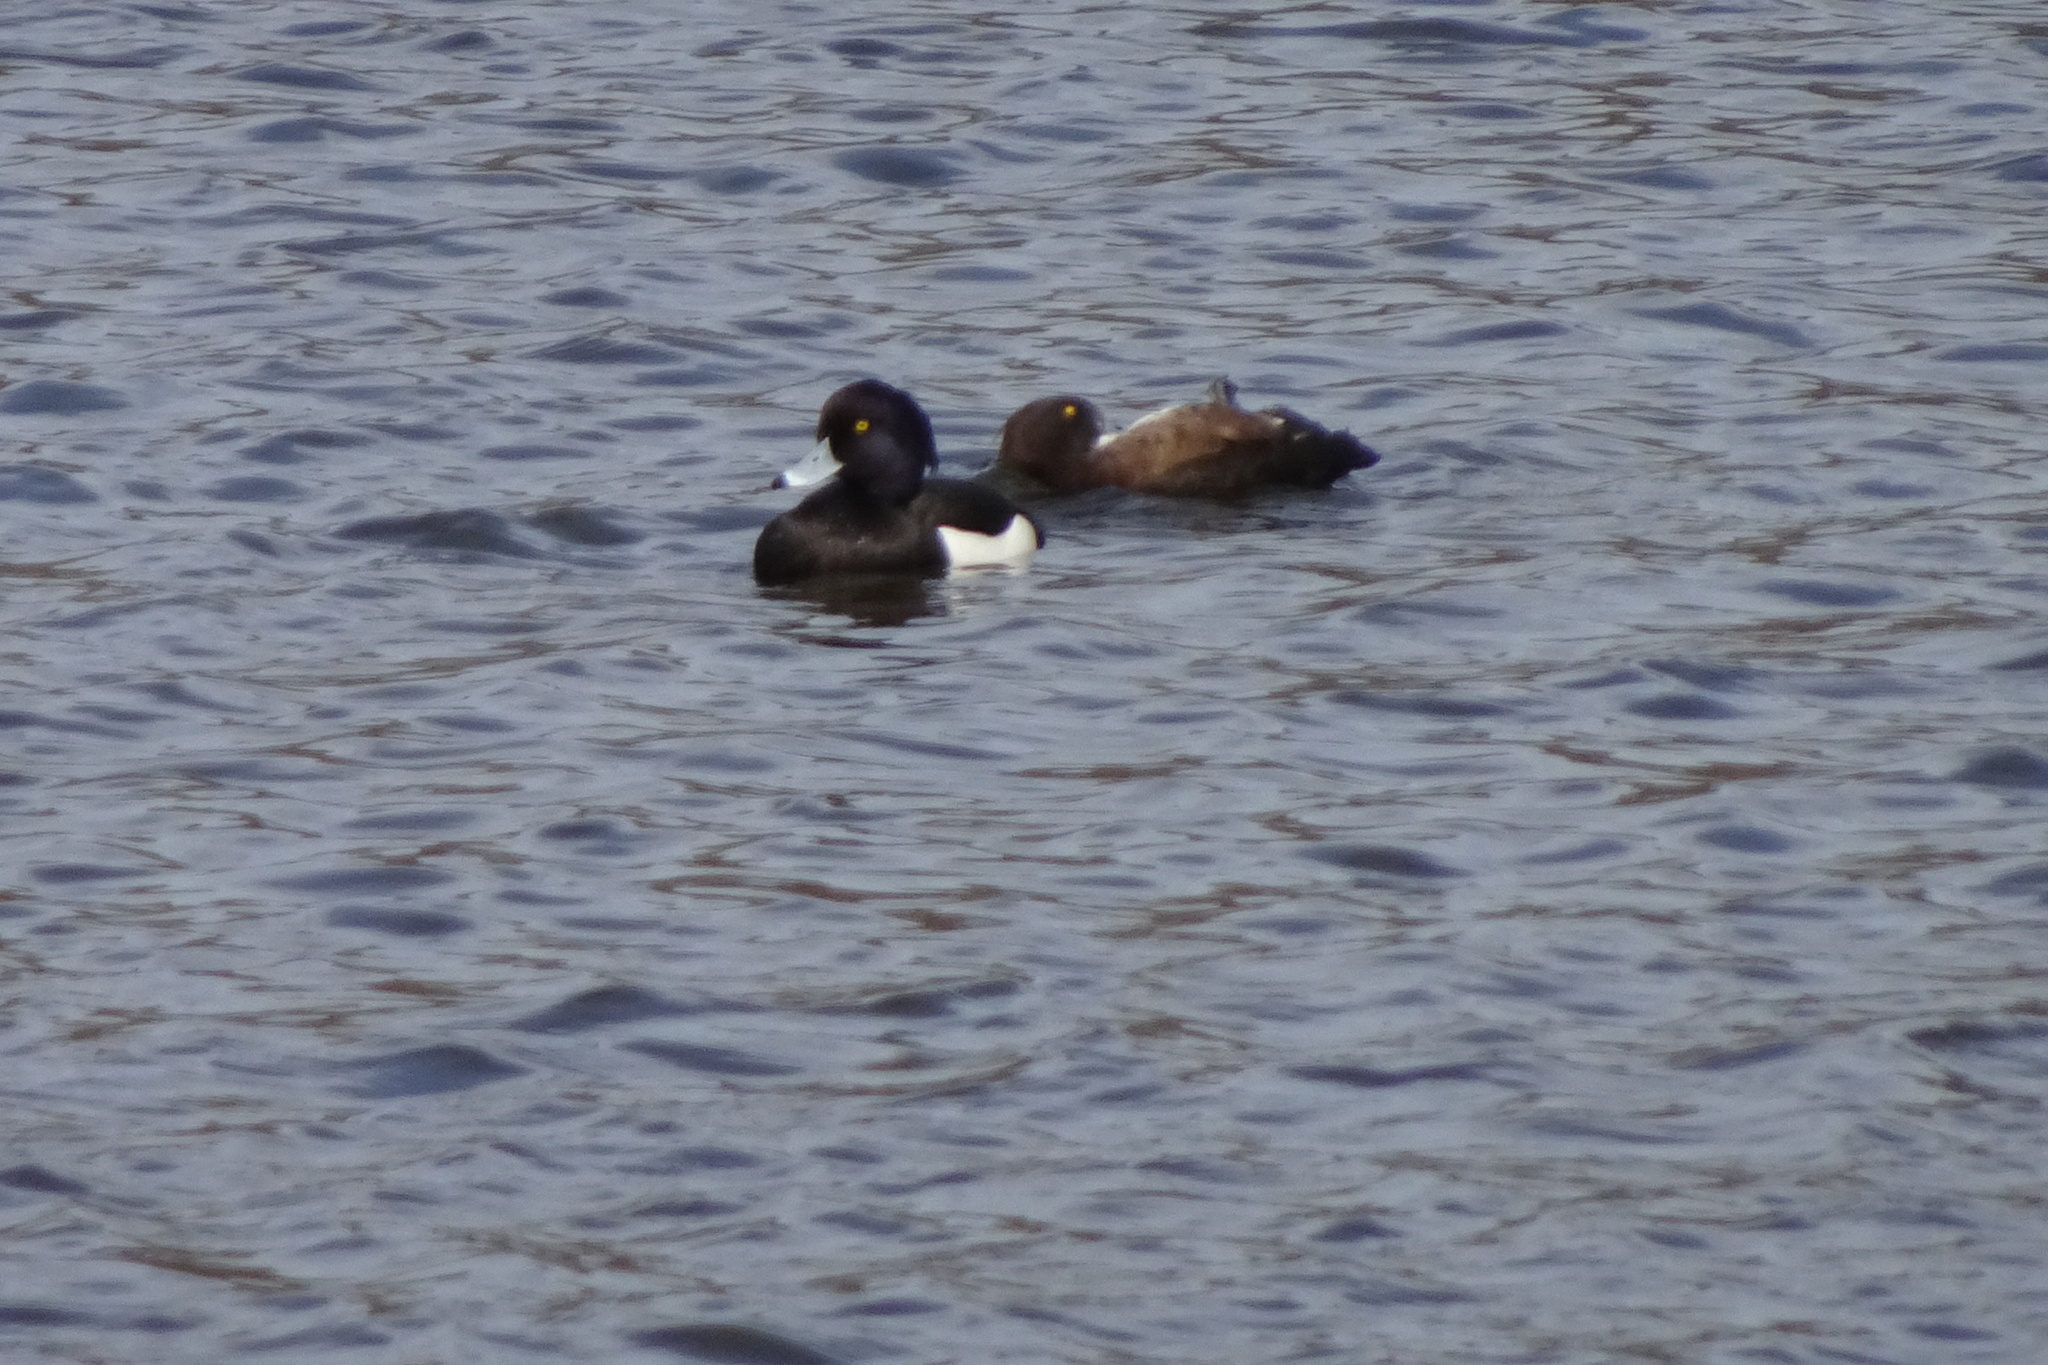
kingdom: Animalia
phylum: Chordata
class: Aves
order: Anseriformes
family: Anatidae
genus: Aythya
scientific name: Aythya fuligula
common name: Tufted duck
